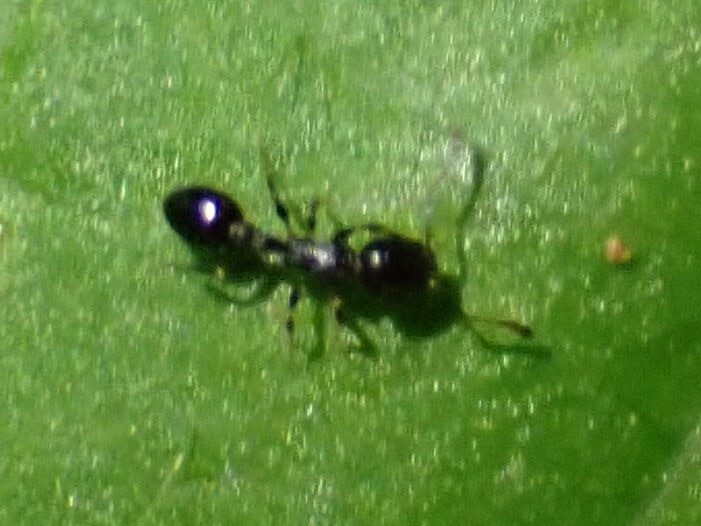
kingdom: Animalia
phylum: Arthropoda
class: Insecta
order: Hymenoptera
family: Formicidae
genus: Temnothorax
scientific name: Temnothorax longispinosus
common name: Long-spined acorn ant
